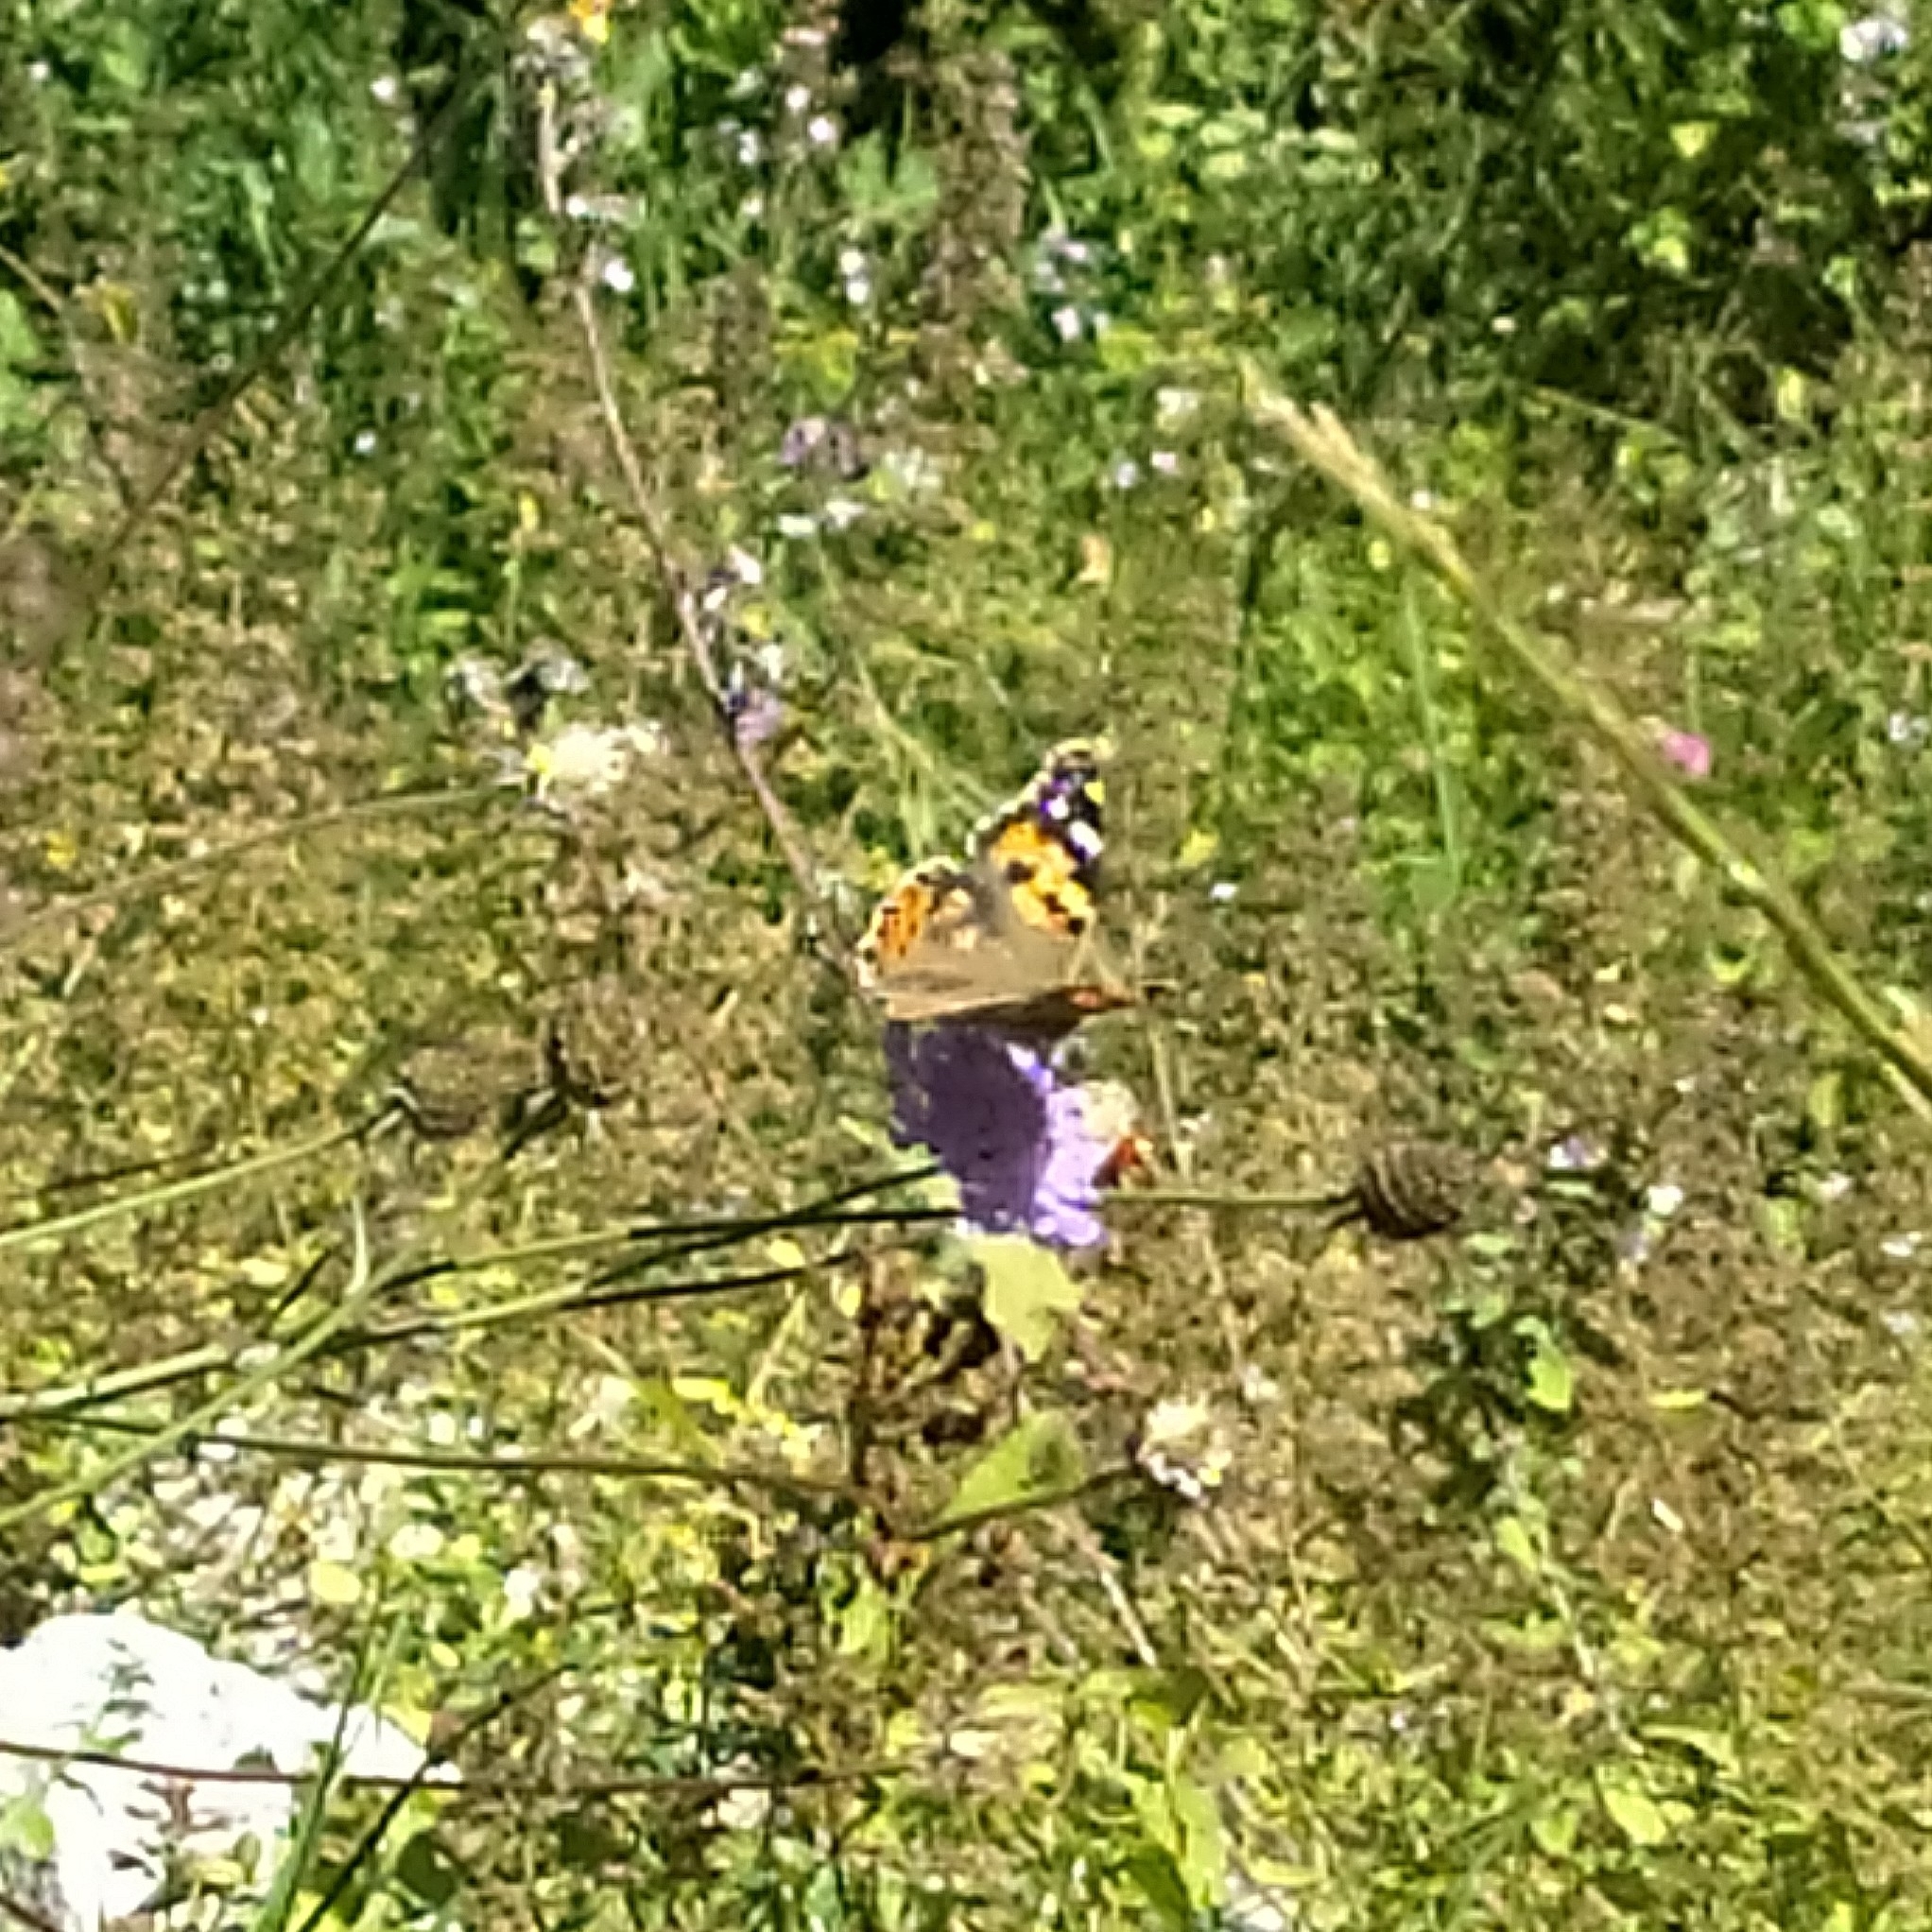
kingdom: Animalia
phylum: Arthropoda
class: Insecta
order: Lepidoptera
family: Nymphalidae
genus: Vanessa
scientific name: Vanessa cardui
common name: Painted lady
